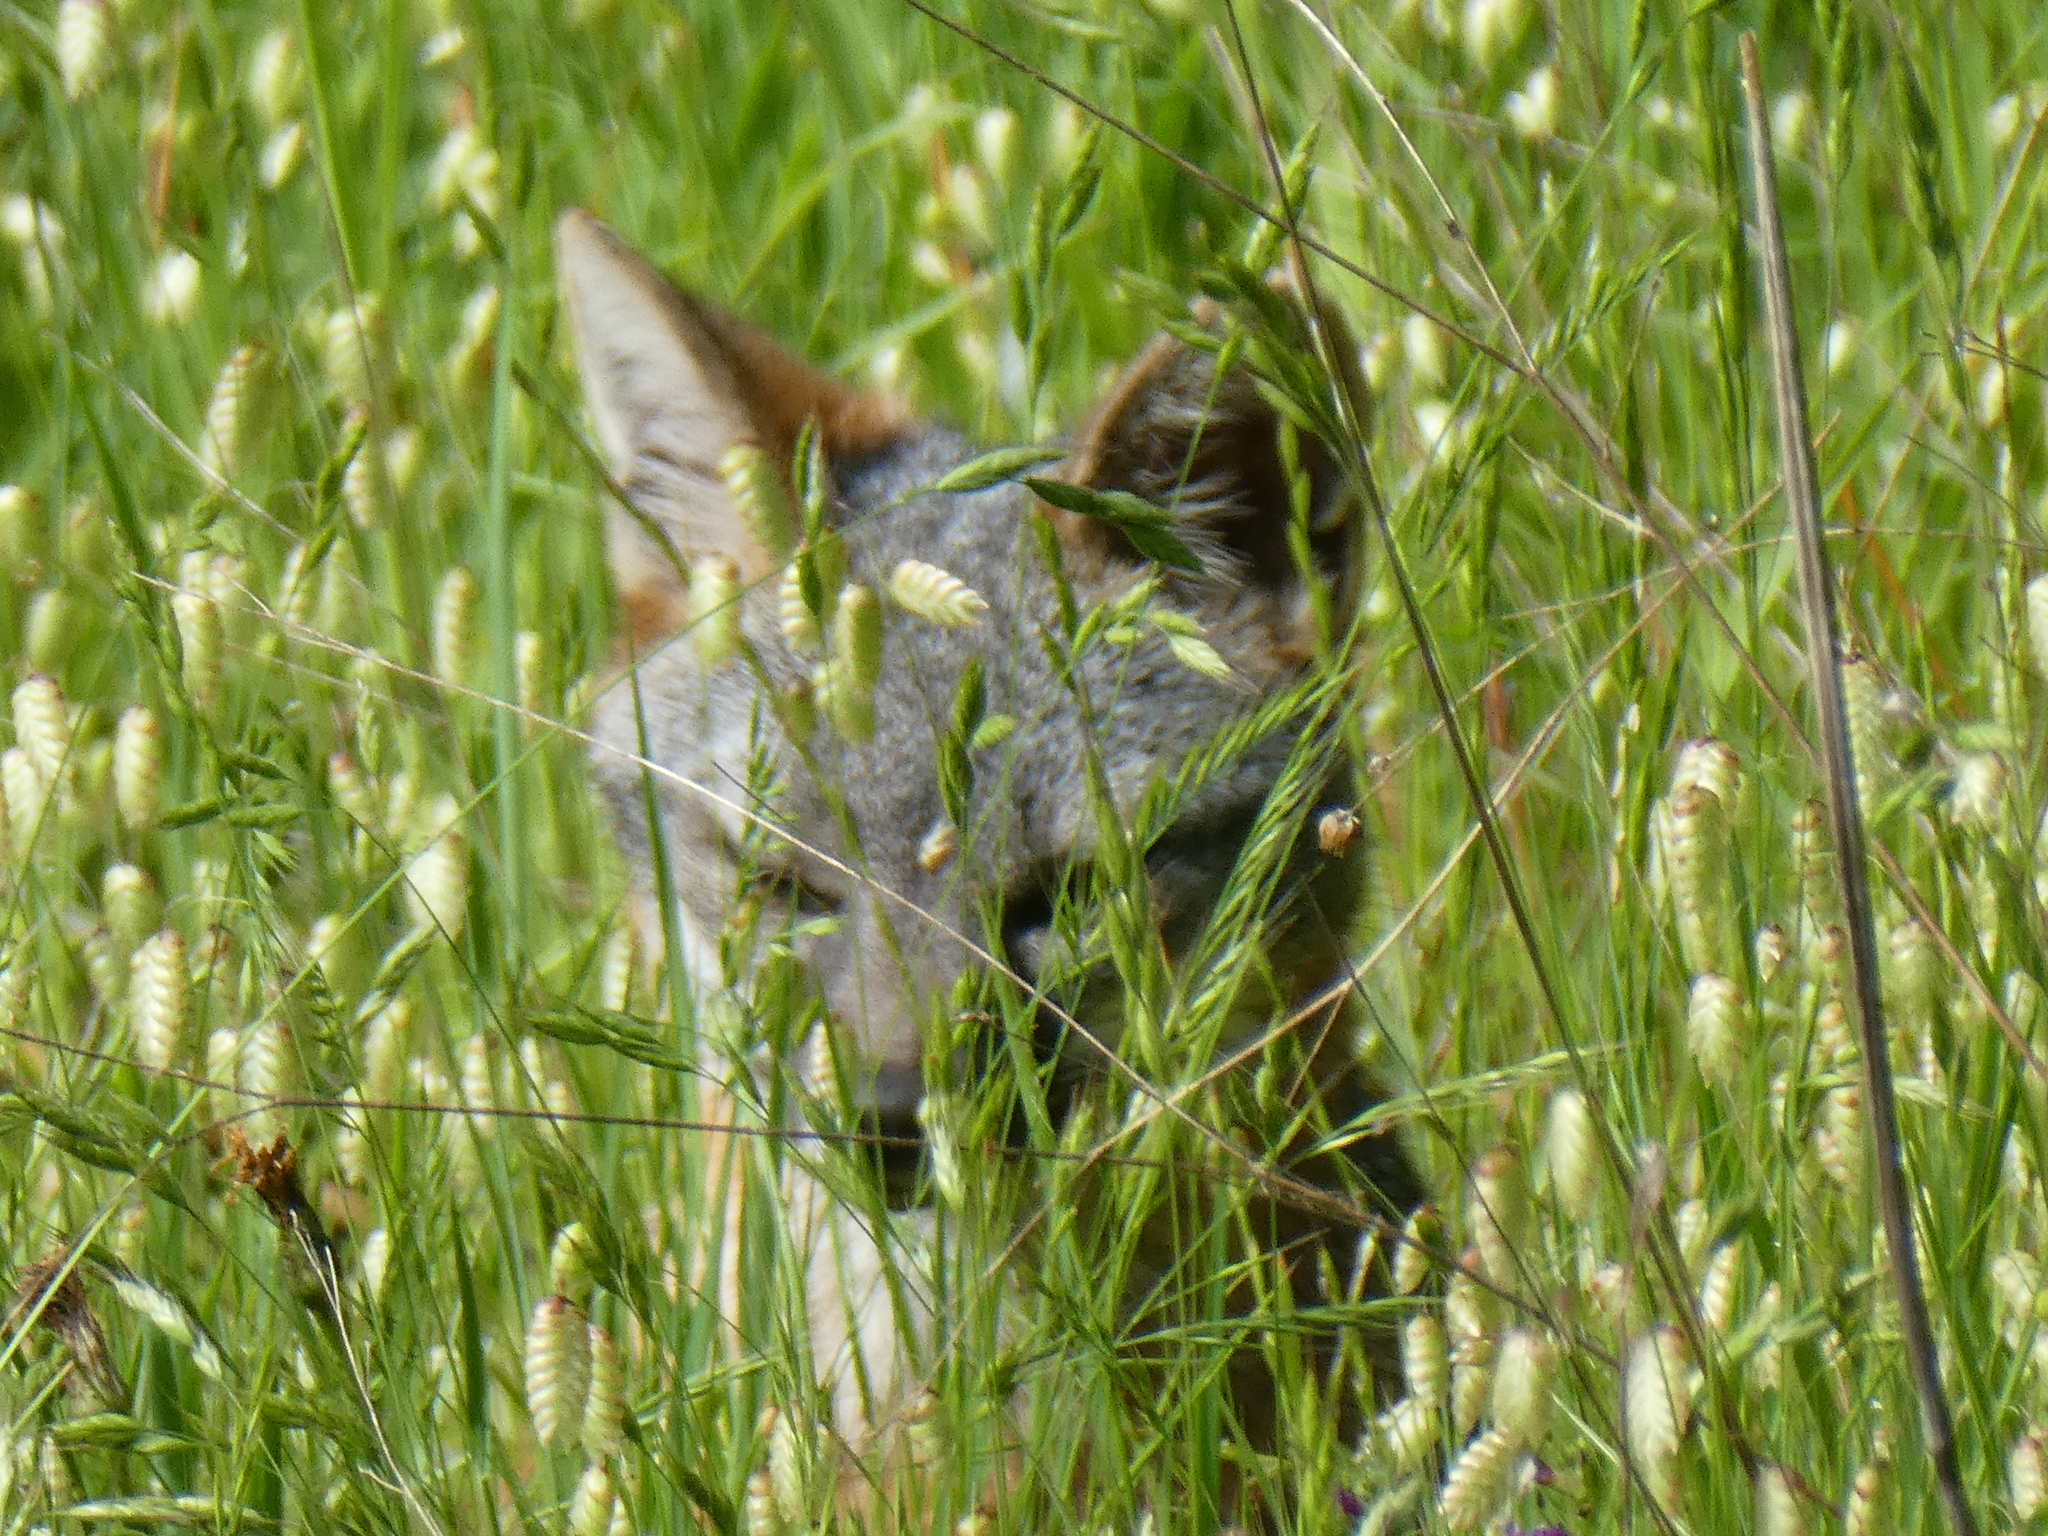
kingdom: Animalia
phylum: Chordata
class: Mammalia
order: Carnivora
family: Canidae
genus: Urocyon
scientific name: Urocyon cinereoargenteus
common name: Gray fox
